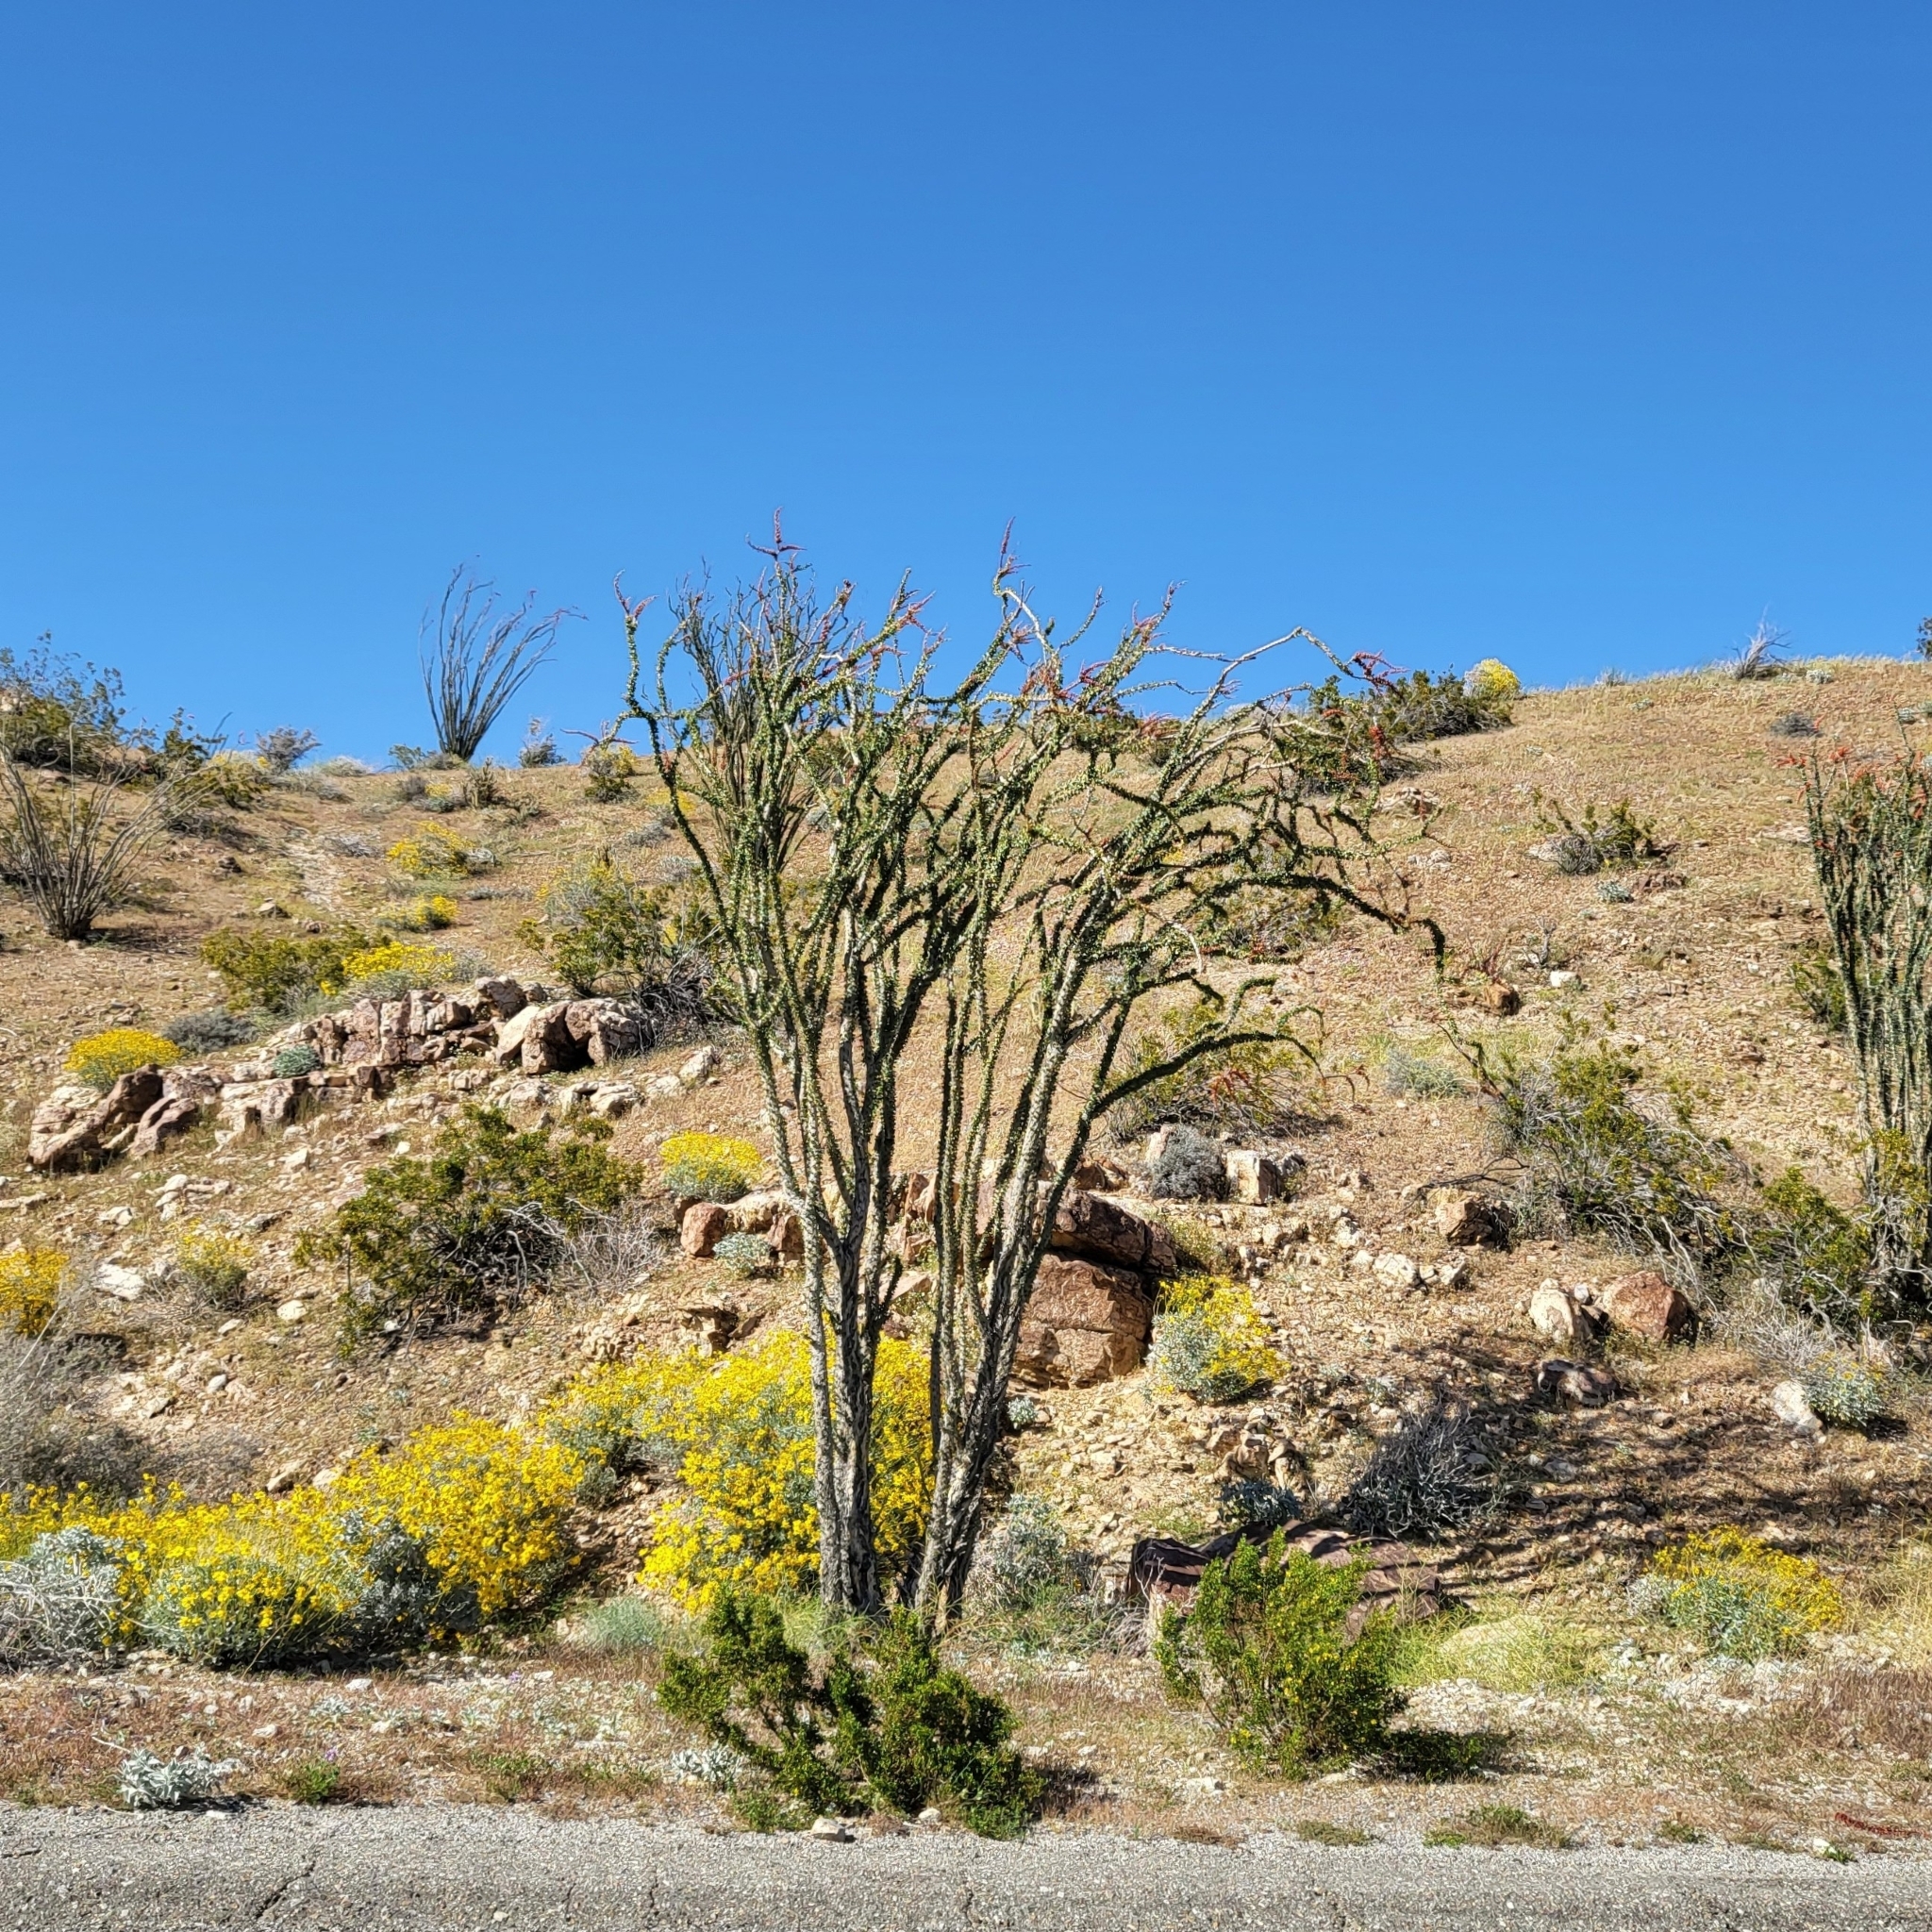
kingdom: Plantae
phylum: Tracheophyta
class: Magnoliopsida
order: Ericales
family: Fouquieriaceae
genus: Fouquieria
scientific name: Fouquieria splendens
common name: Vine-cactus
